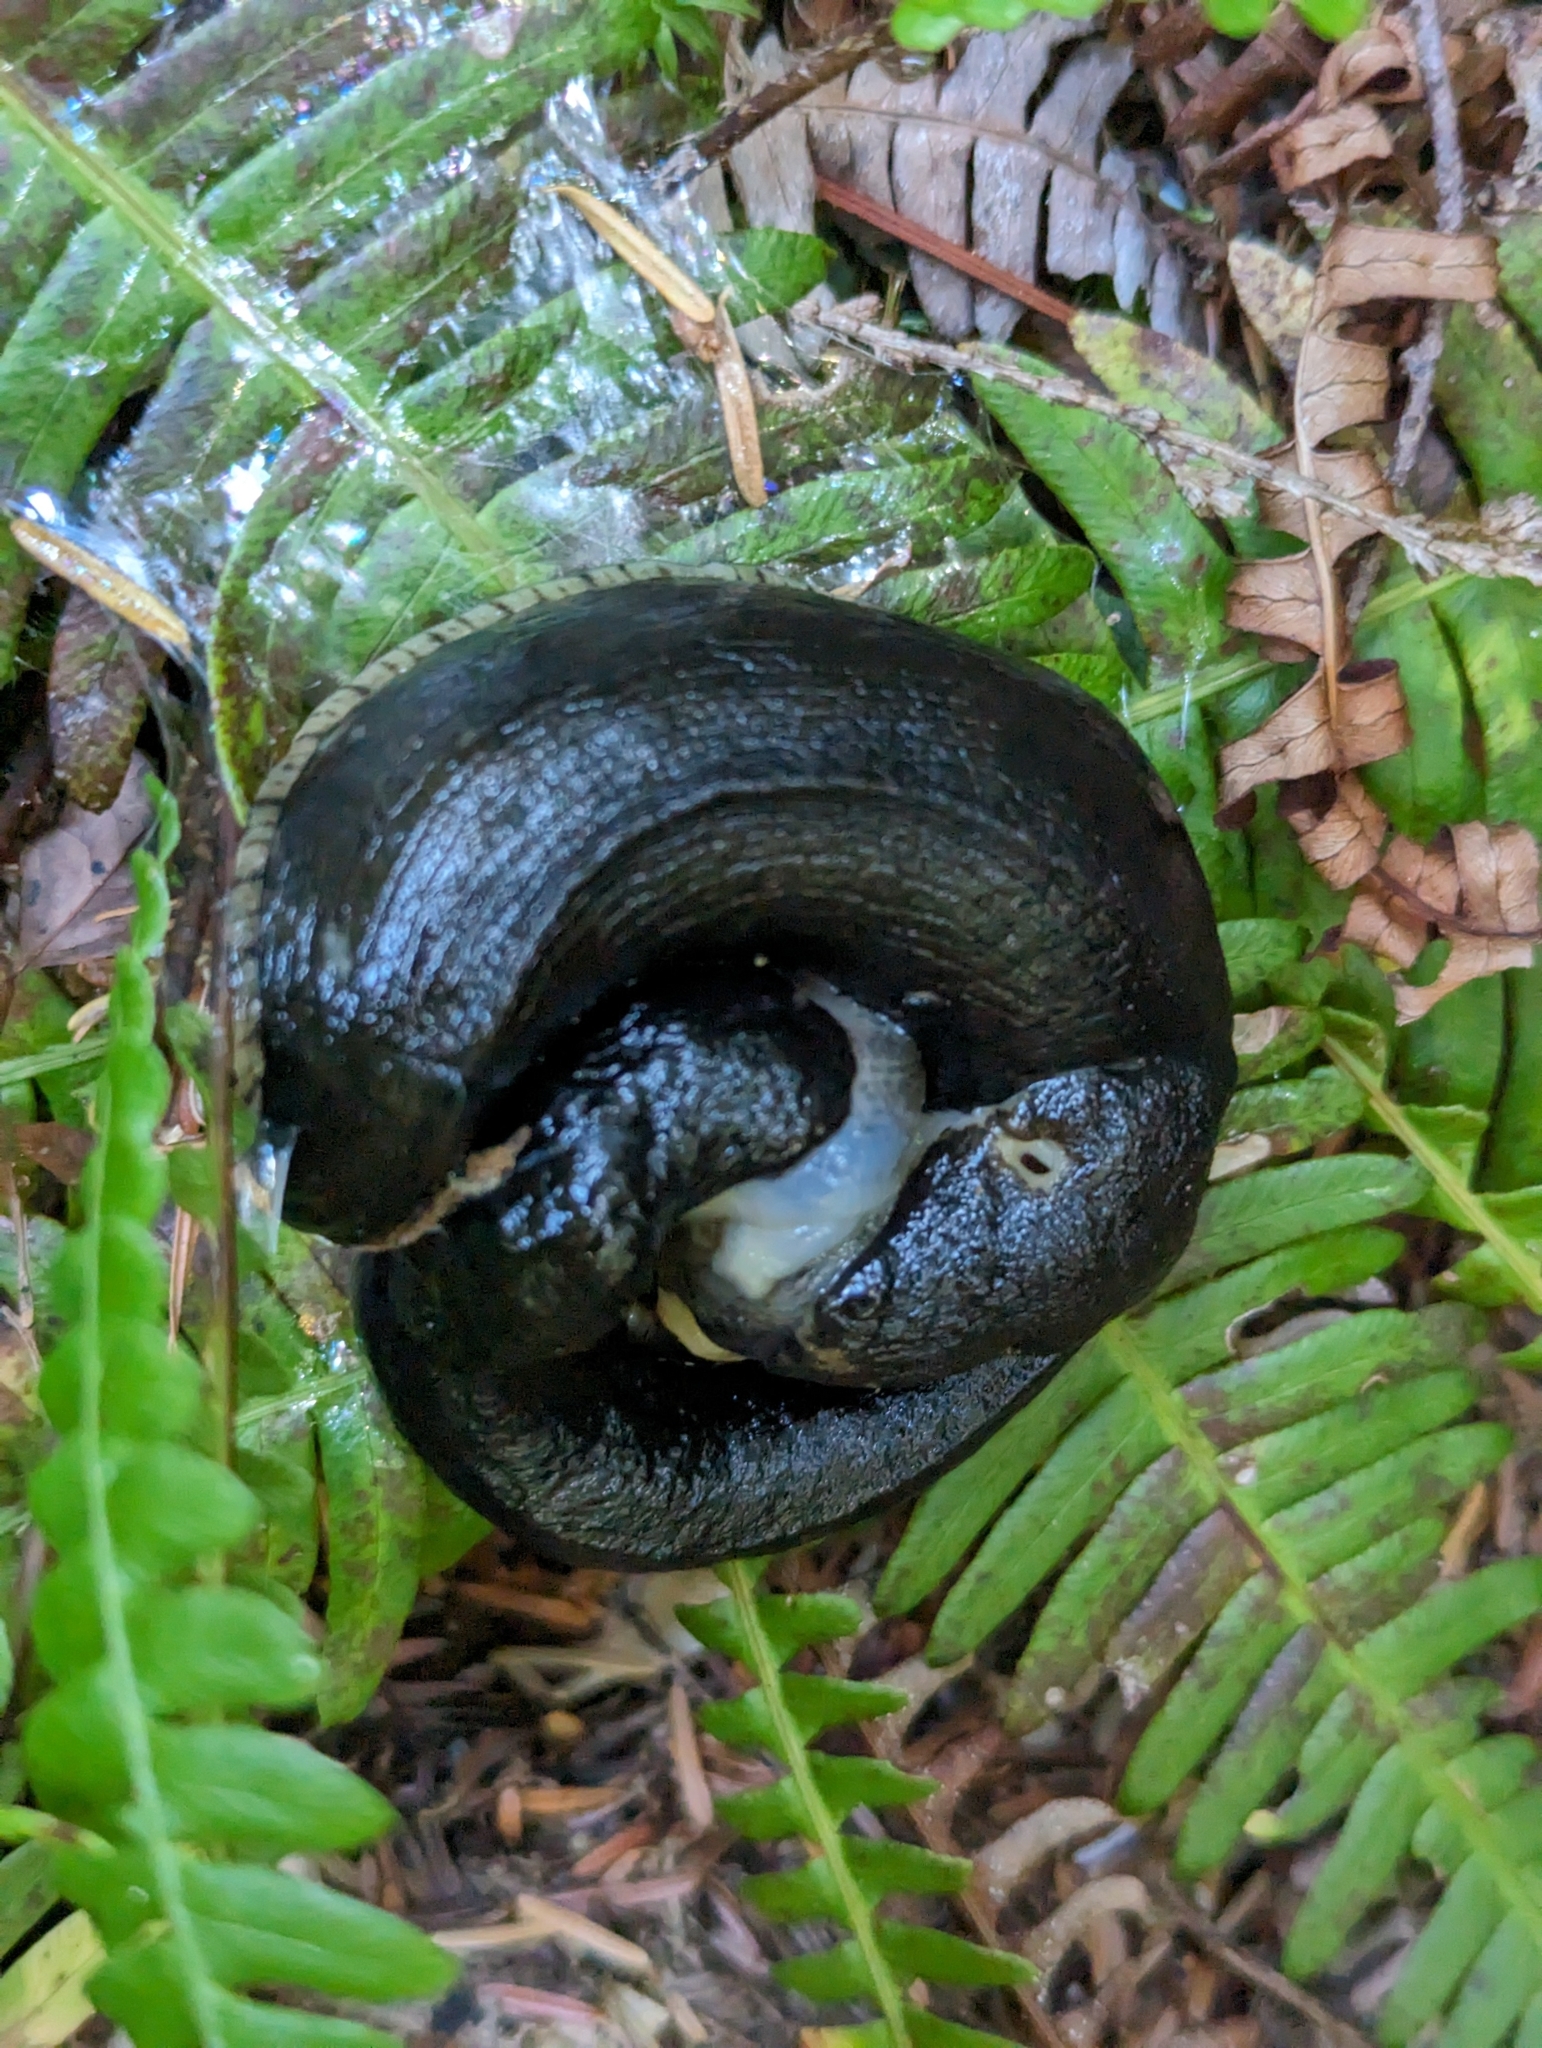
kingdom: Animalia
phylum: Mollusca
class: Gastropoda
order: Stylommatophora
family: Ariolimacidae
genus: Ariolimax
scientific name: Ariolimax columbianus
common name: Pacific banana slug
